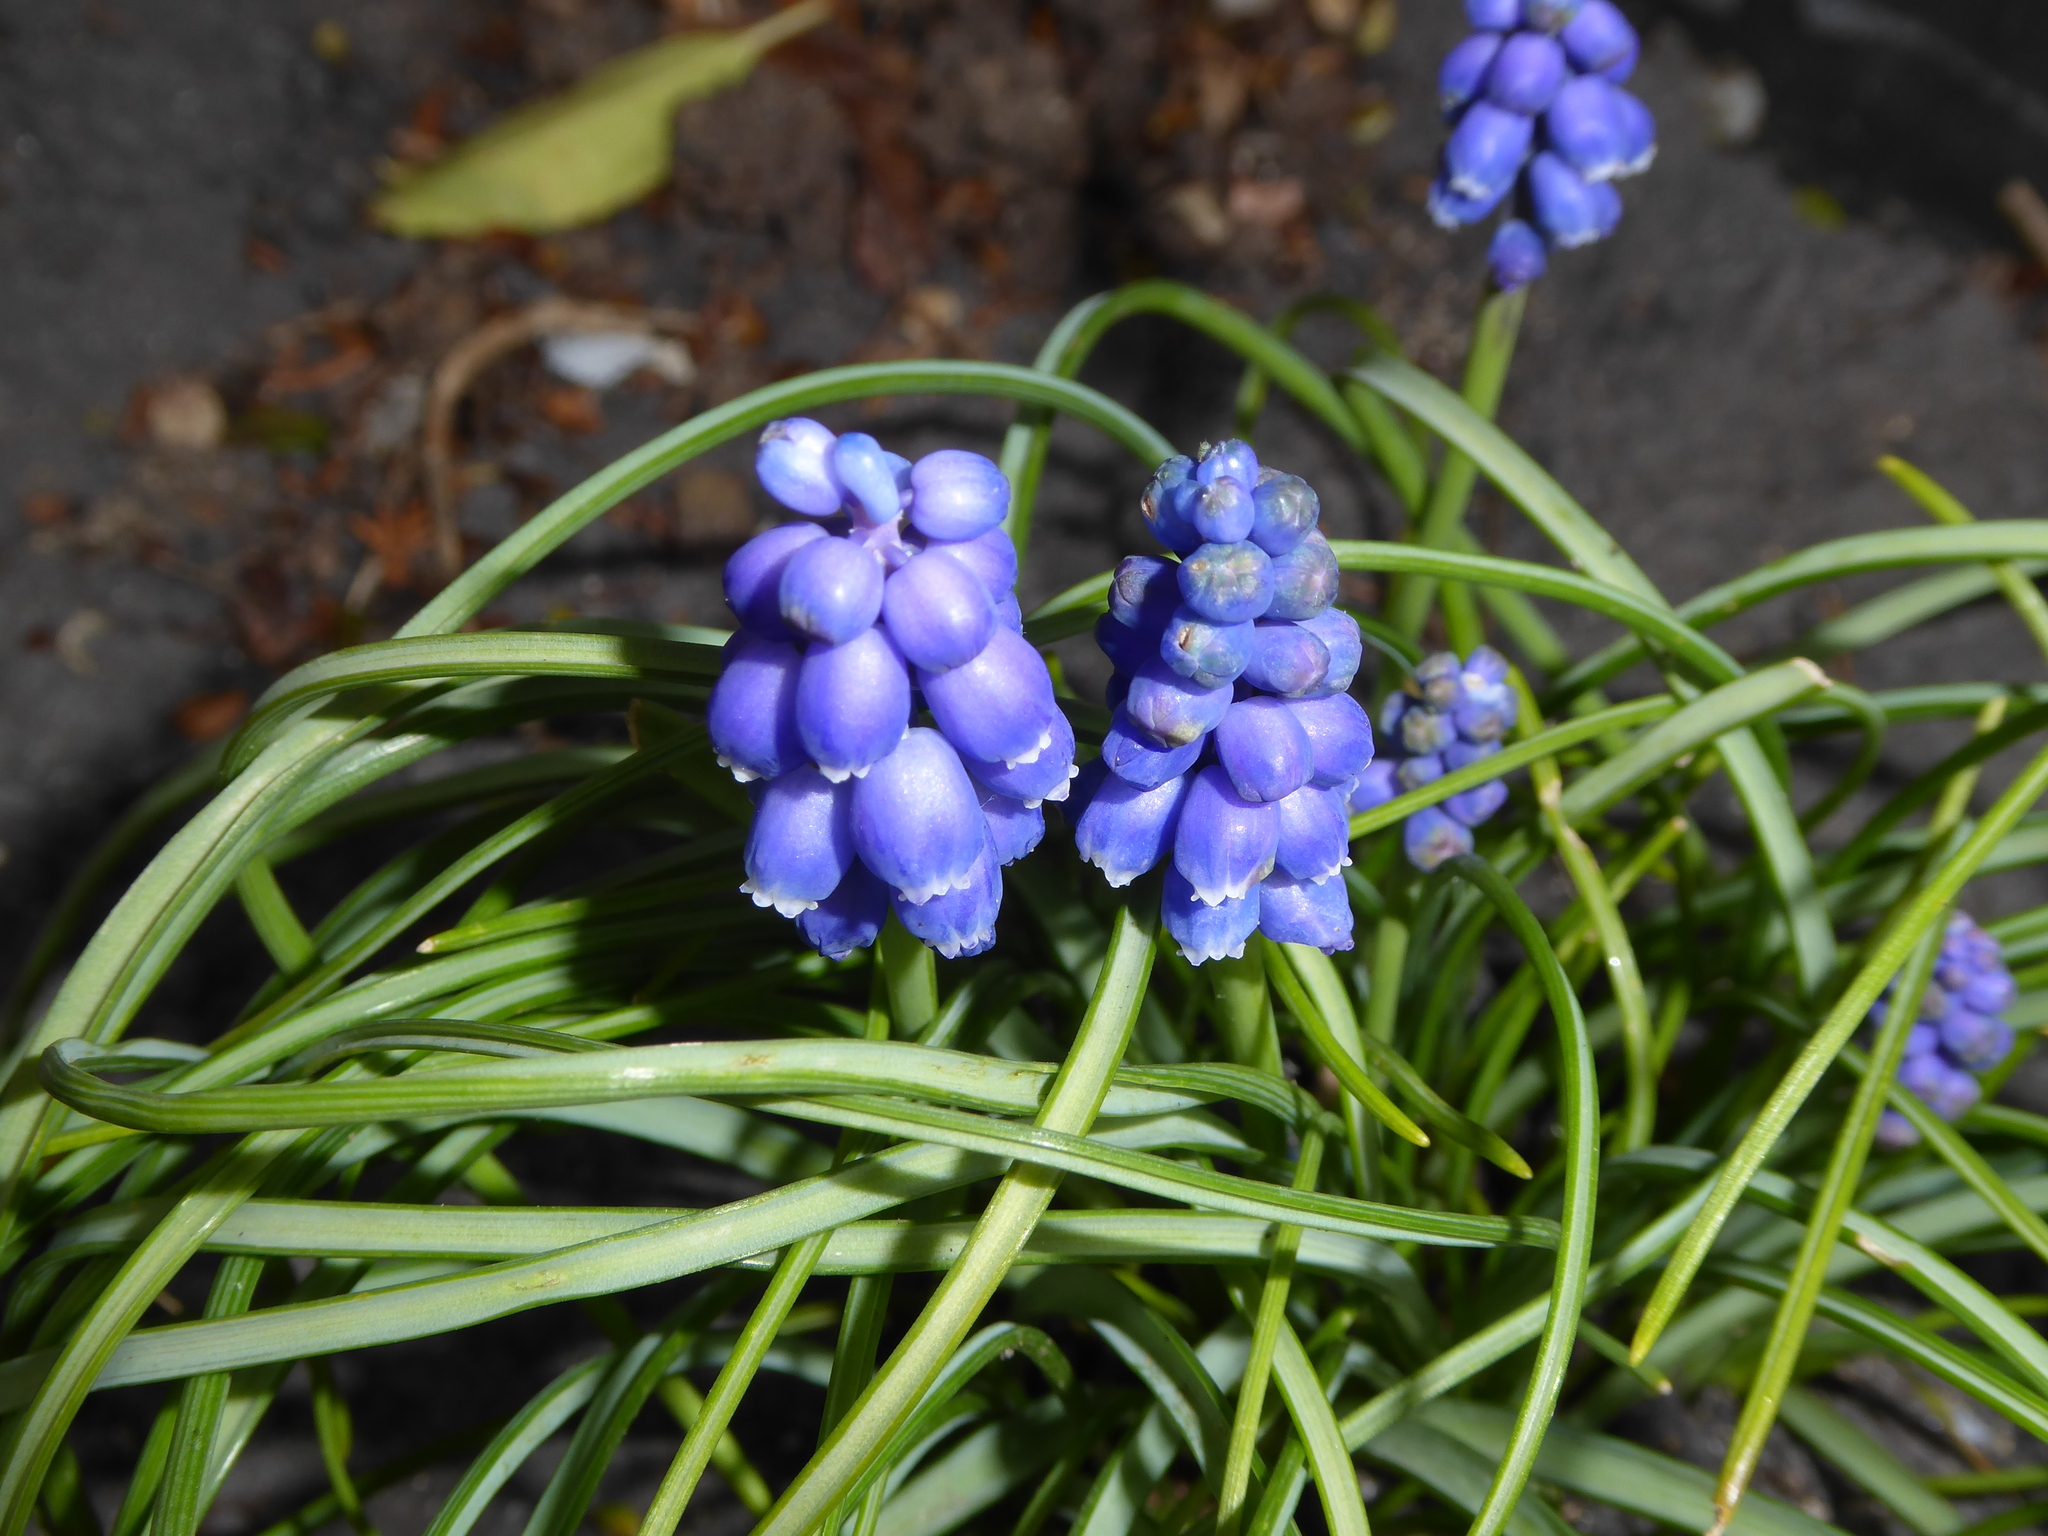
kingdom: Plantae
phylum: Tracheophyta
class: Liliopsida
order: Asparagales
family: Asparagaceae
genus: Muscari
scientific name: Muscari armeniacum
